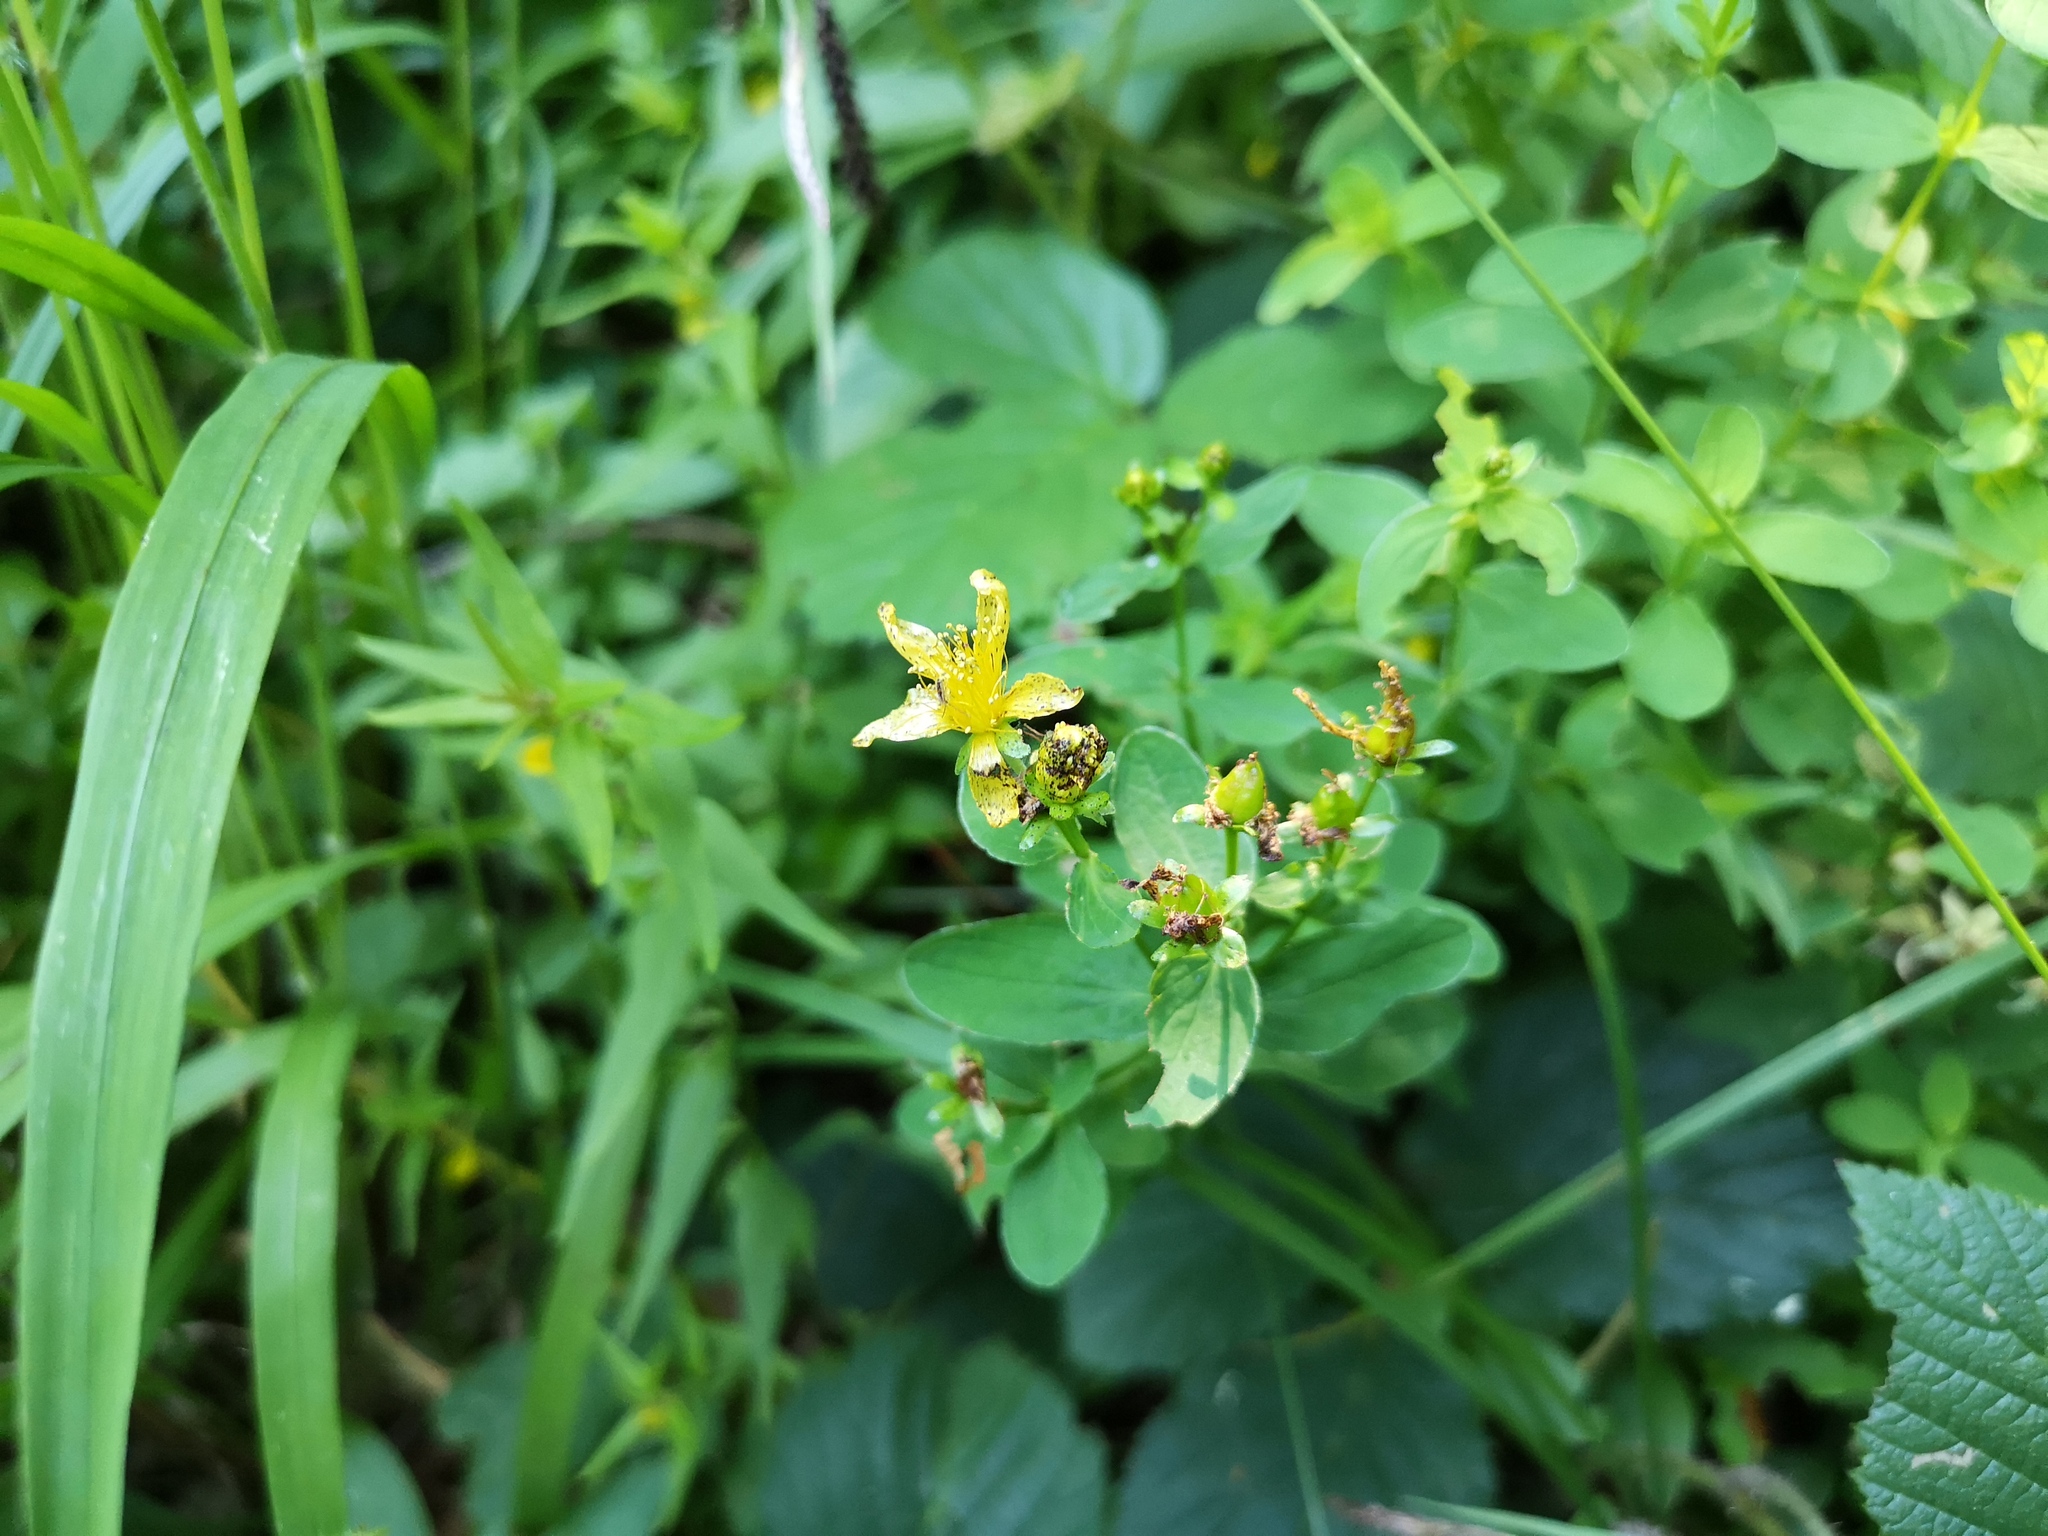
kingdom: Plantae
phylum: Tracheophyta
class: Magnoliopsida
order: Malpighiales
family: Hypericaceae
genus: Hypericum
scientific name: Hypericum maculatum
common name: Imperforate st. john's-wort
